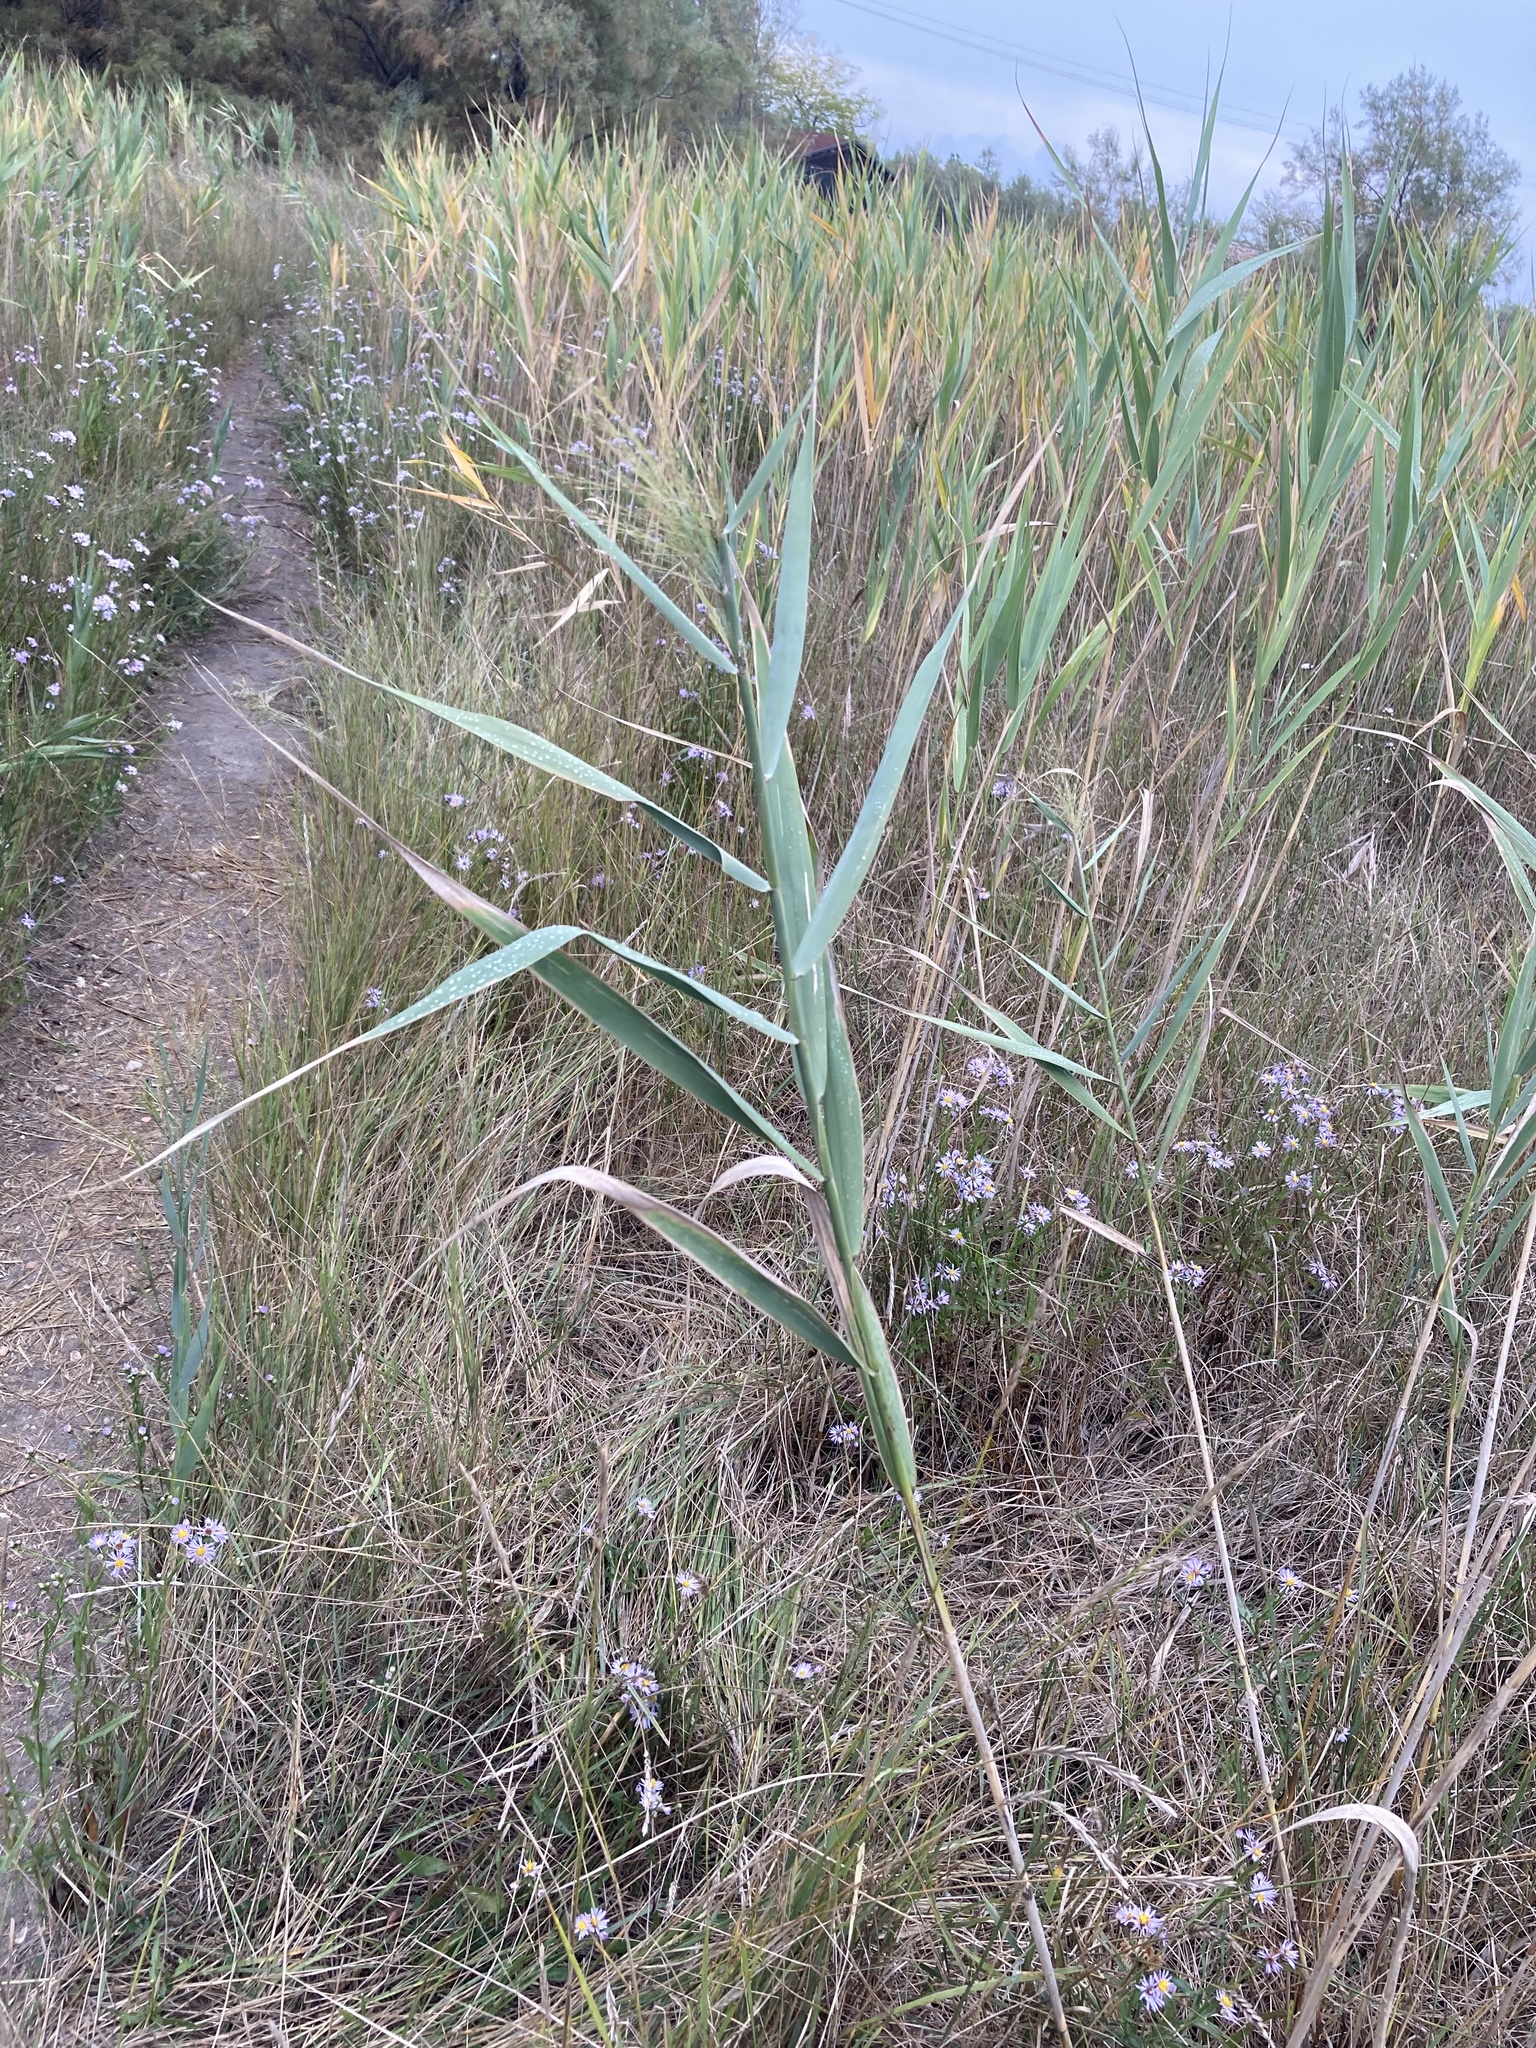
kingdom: Plantae
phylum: Tracheophyta
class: Liliopsida
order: Poales
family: Poaceae
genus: Phragmites
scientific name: Phragmites australis
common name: Common reed
